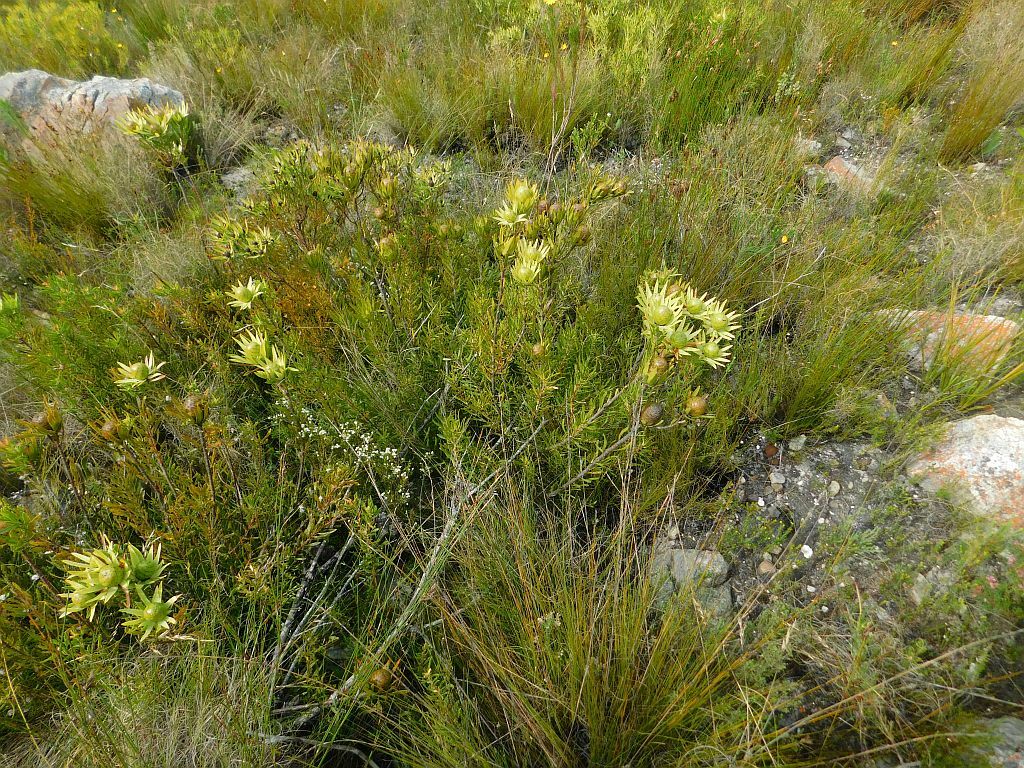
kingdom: Plantae
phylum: Tracheophyta
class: Magnoliopsida
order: Proteales
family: Proteaceae
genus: Leucadendron
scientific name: Leucadendron spissifolium
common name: Spear-leaf conebush
